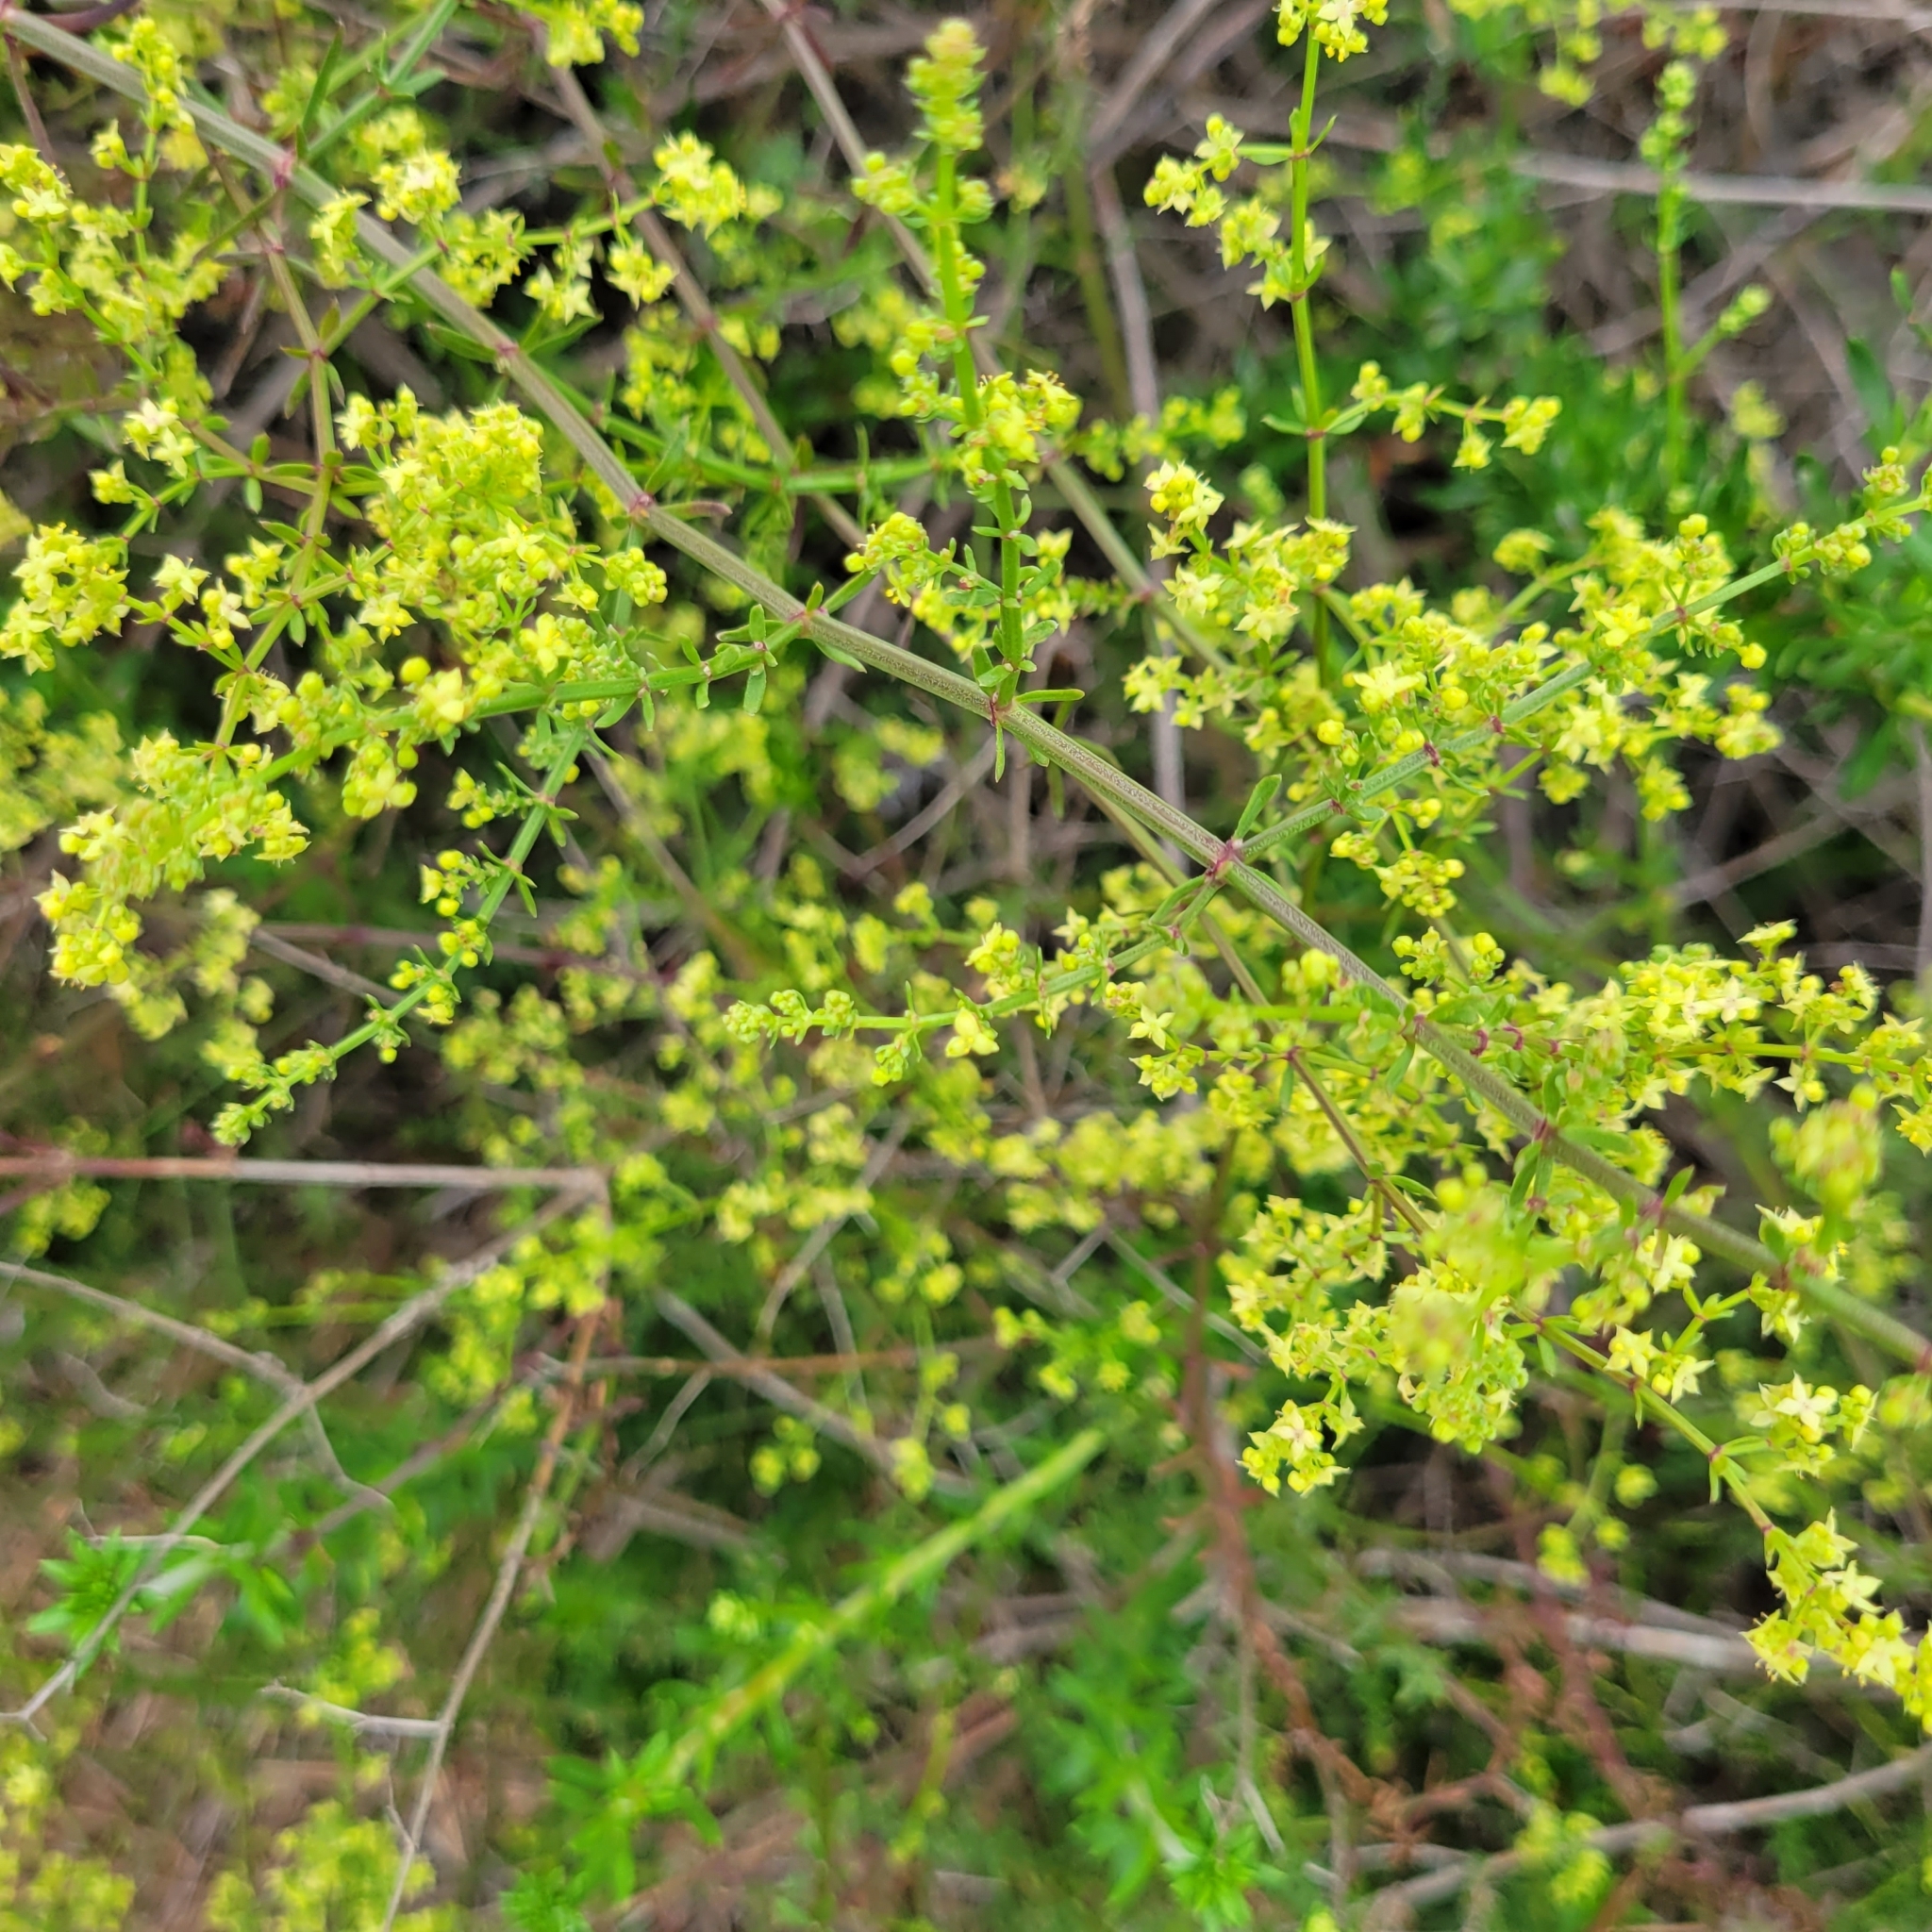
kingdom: Plantae
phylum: Tracheophyta
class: Magnoliopsida
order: Gentianales
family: Rubiaceae
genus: Galium
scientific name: Galium angustifolium
